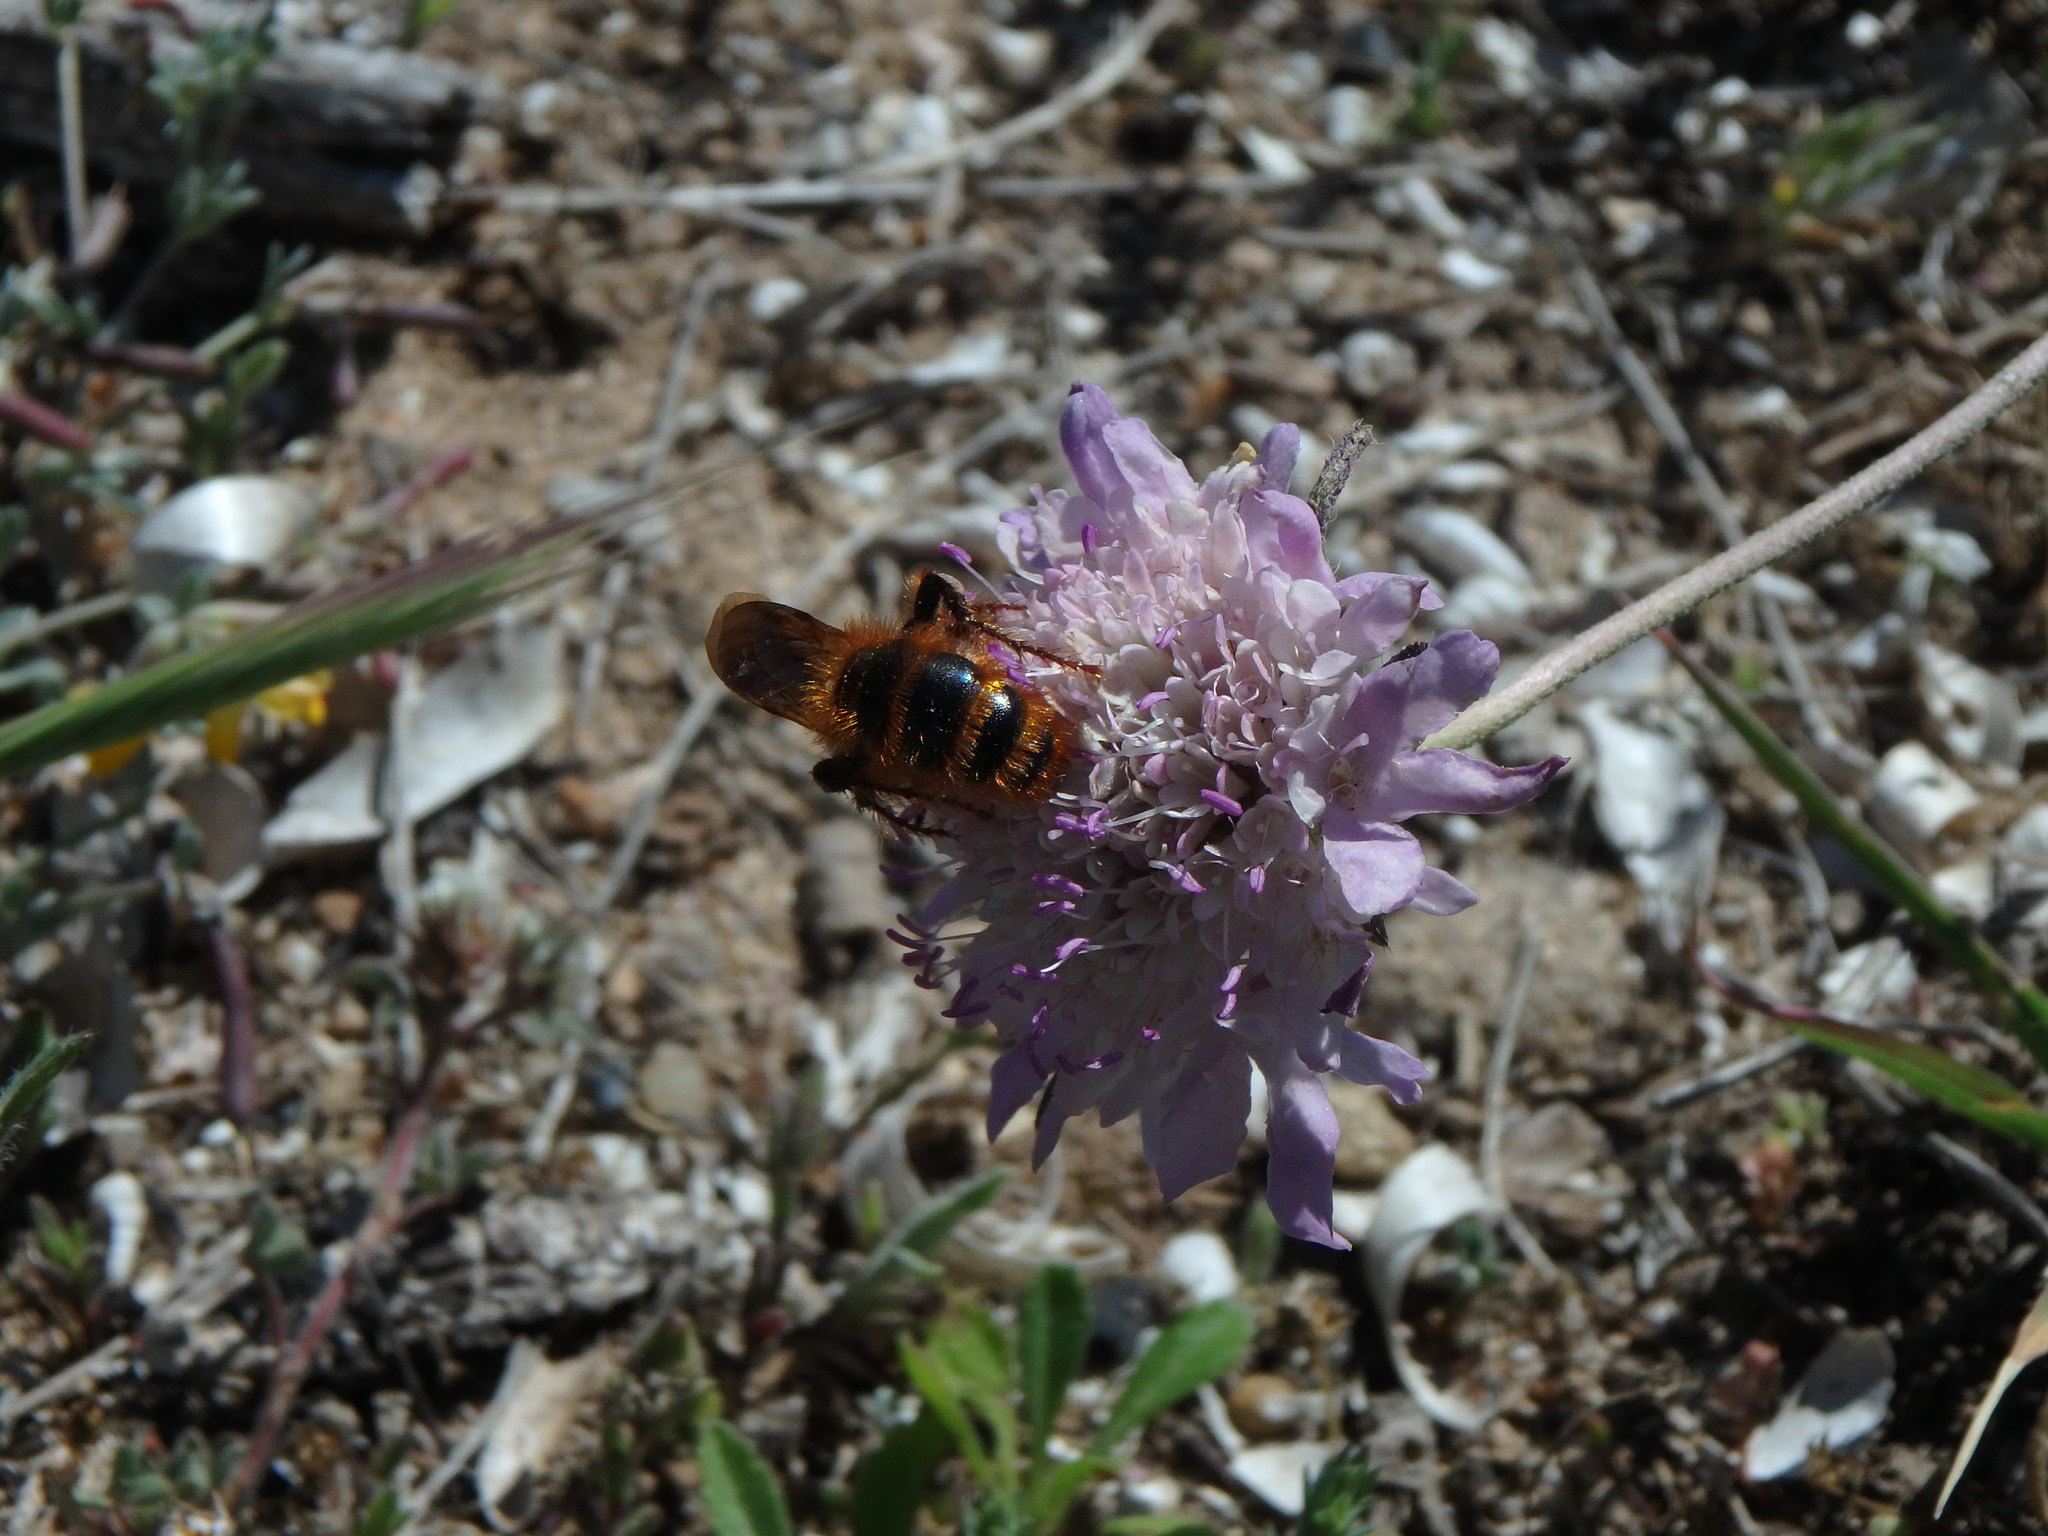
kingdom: Animalia
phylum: Arthropoda
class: Insecta
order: Hymenoptera
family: Scoliidae
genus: Dasyscolia
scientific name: Dasyscolia ciliata
